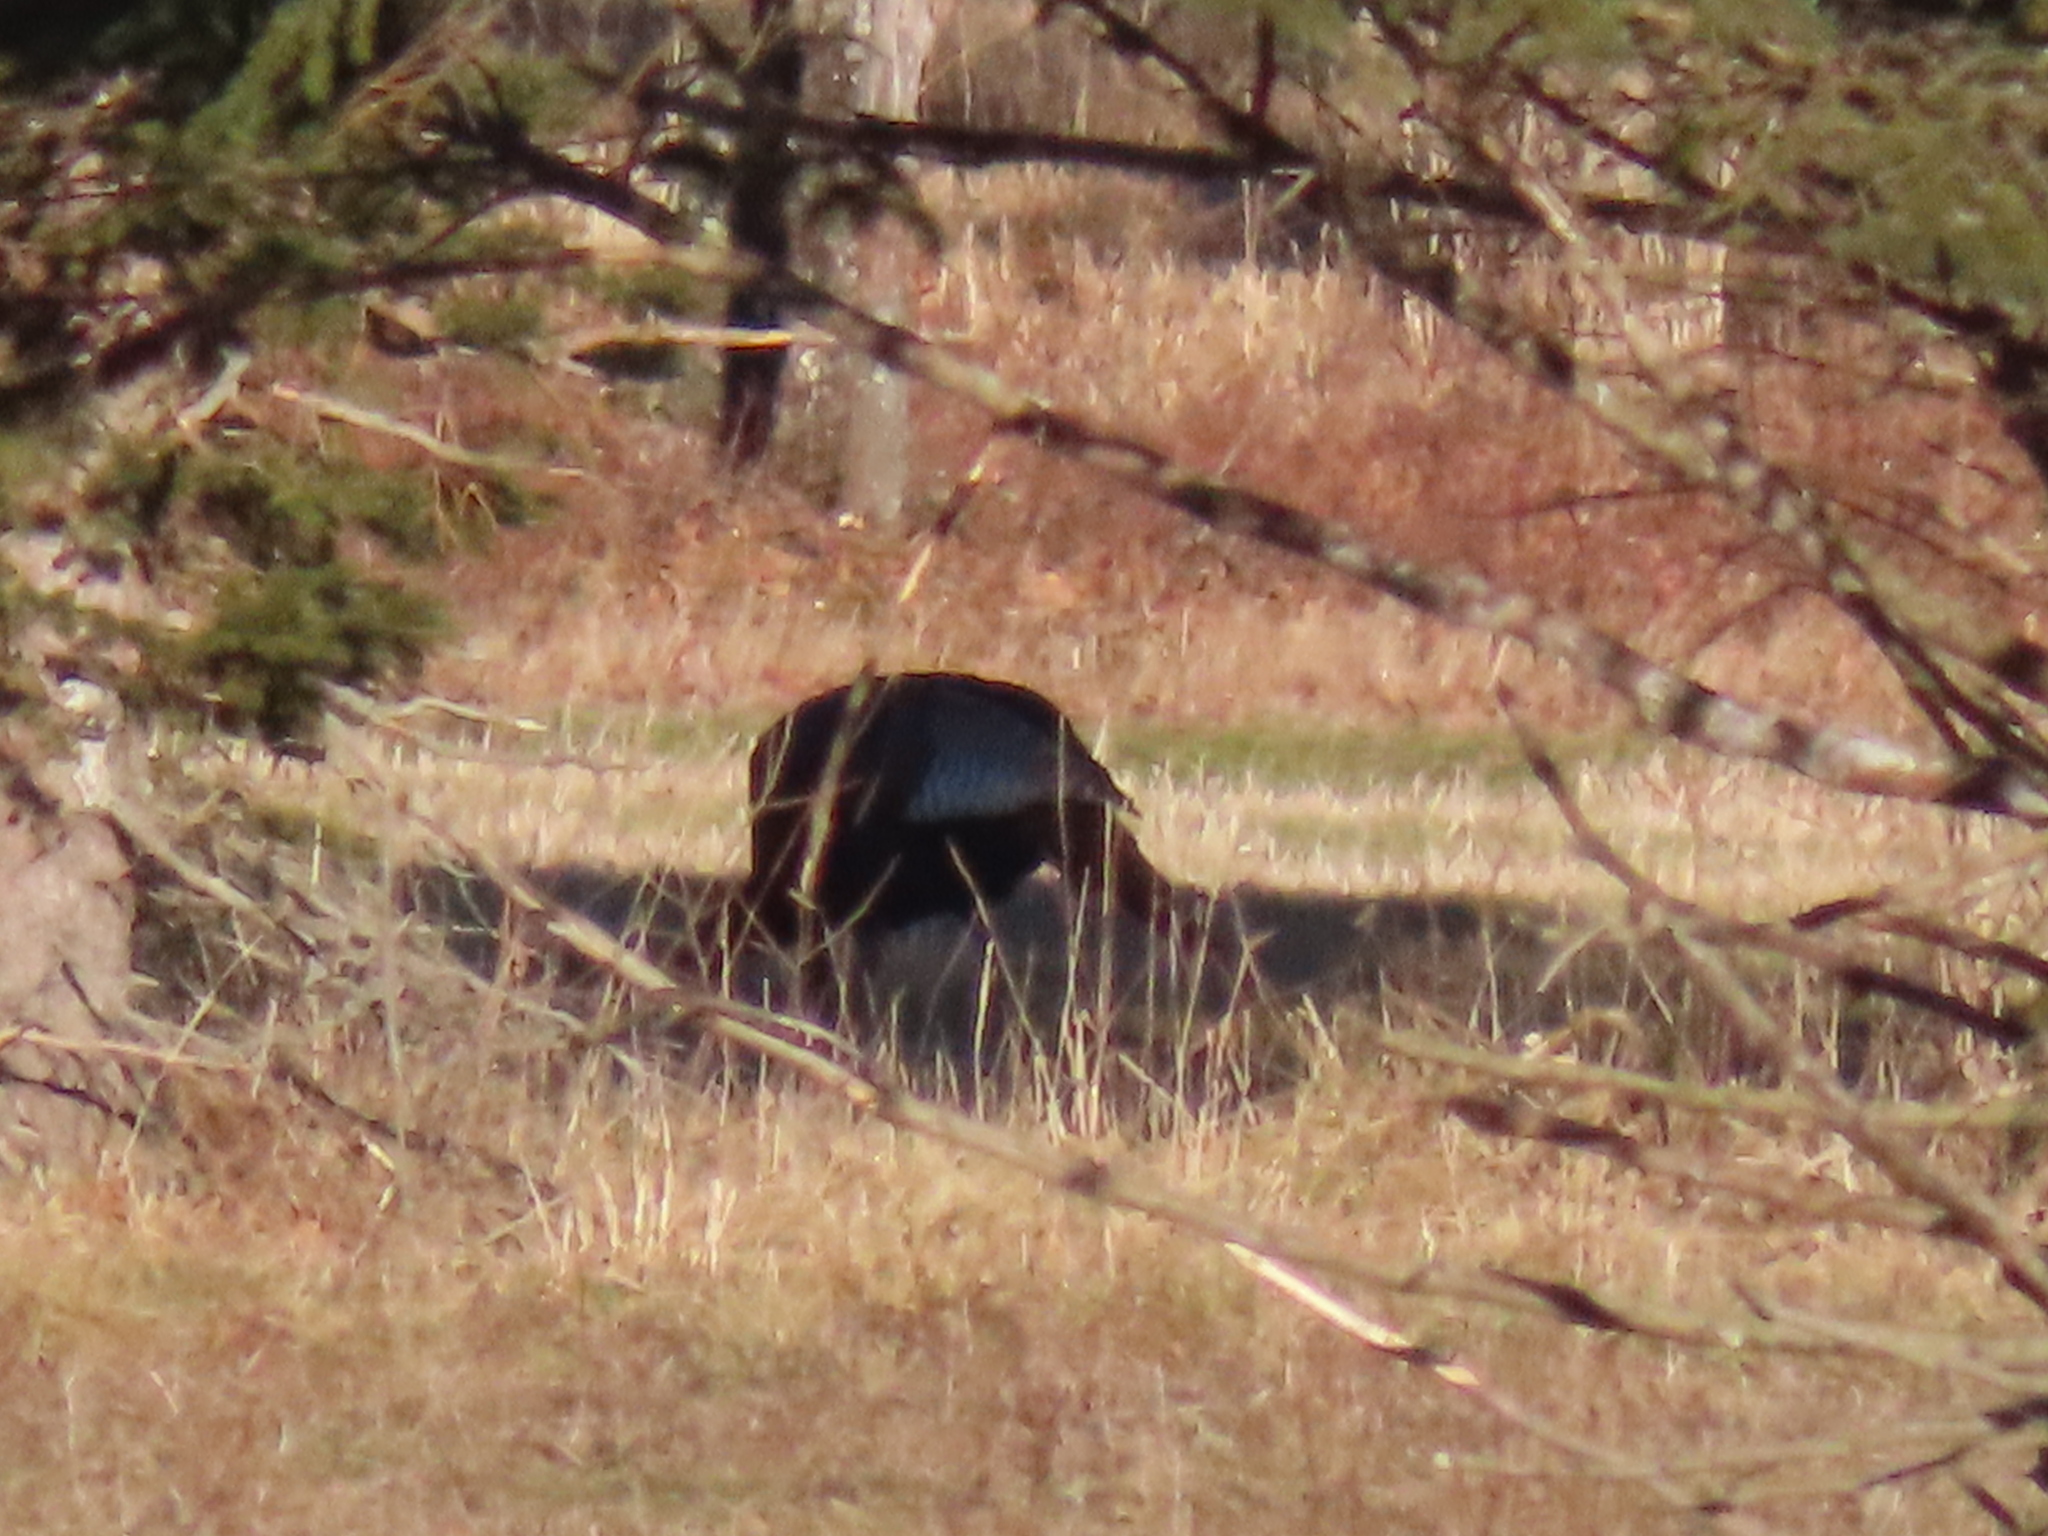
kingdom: Animalia
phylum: Chordata
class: Aves
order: Galliformes
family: Phasianidae
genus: Meleagris
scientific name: Meleagris gallopavo
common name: Wild turkey
